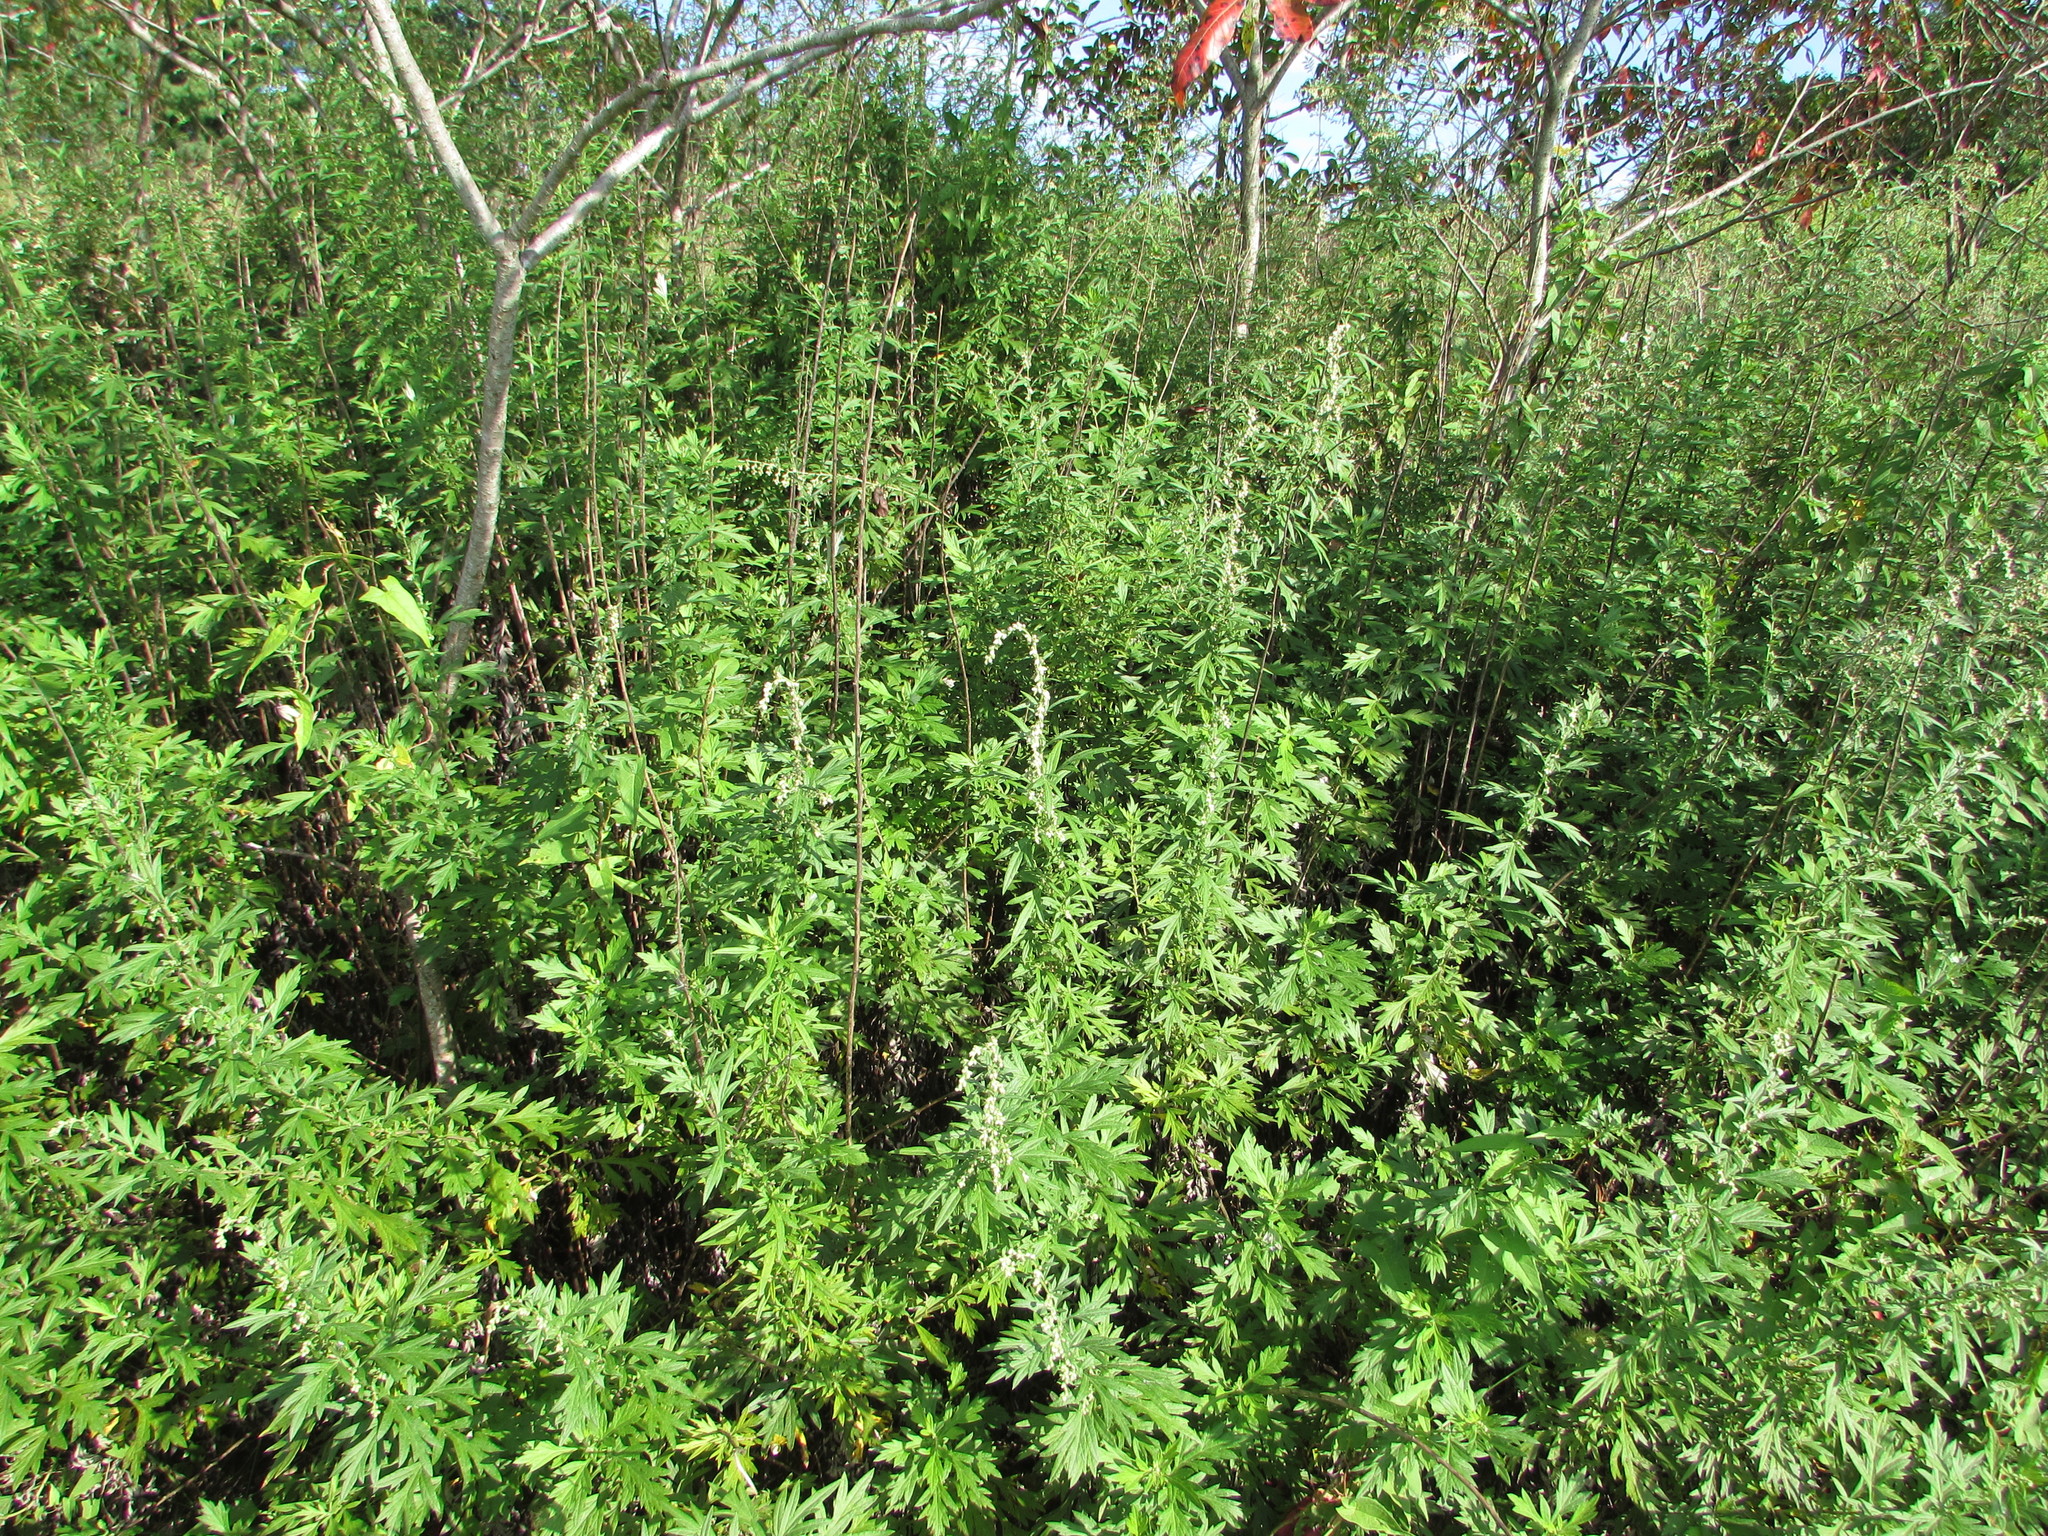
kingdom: Plantae
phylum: Tracheophyta
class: Magnoliopsida
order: Asterales
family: Asteraceae
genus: Artemisia
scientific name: Artemisia vulgaris
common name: Mugwort
